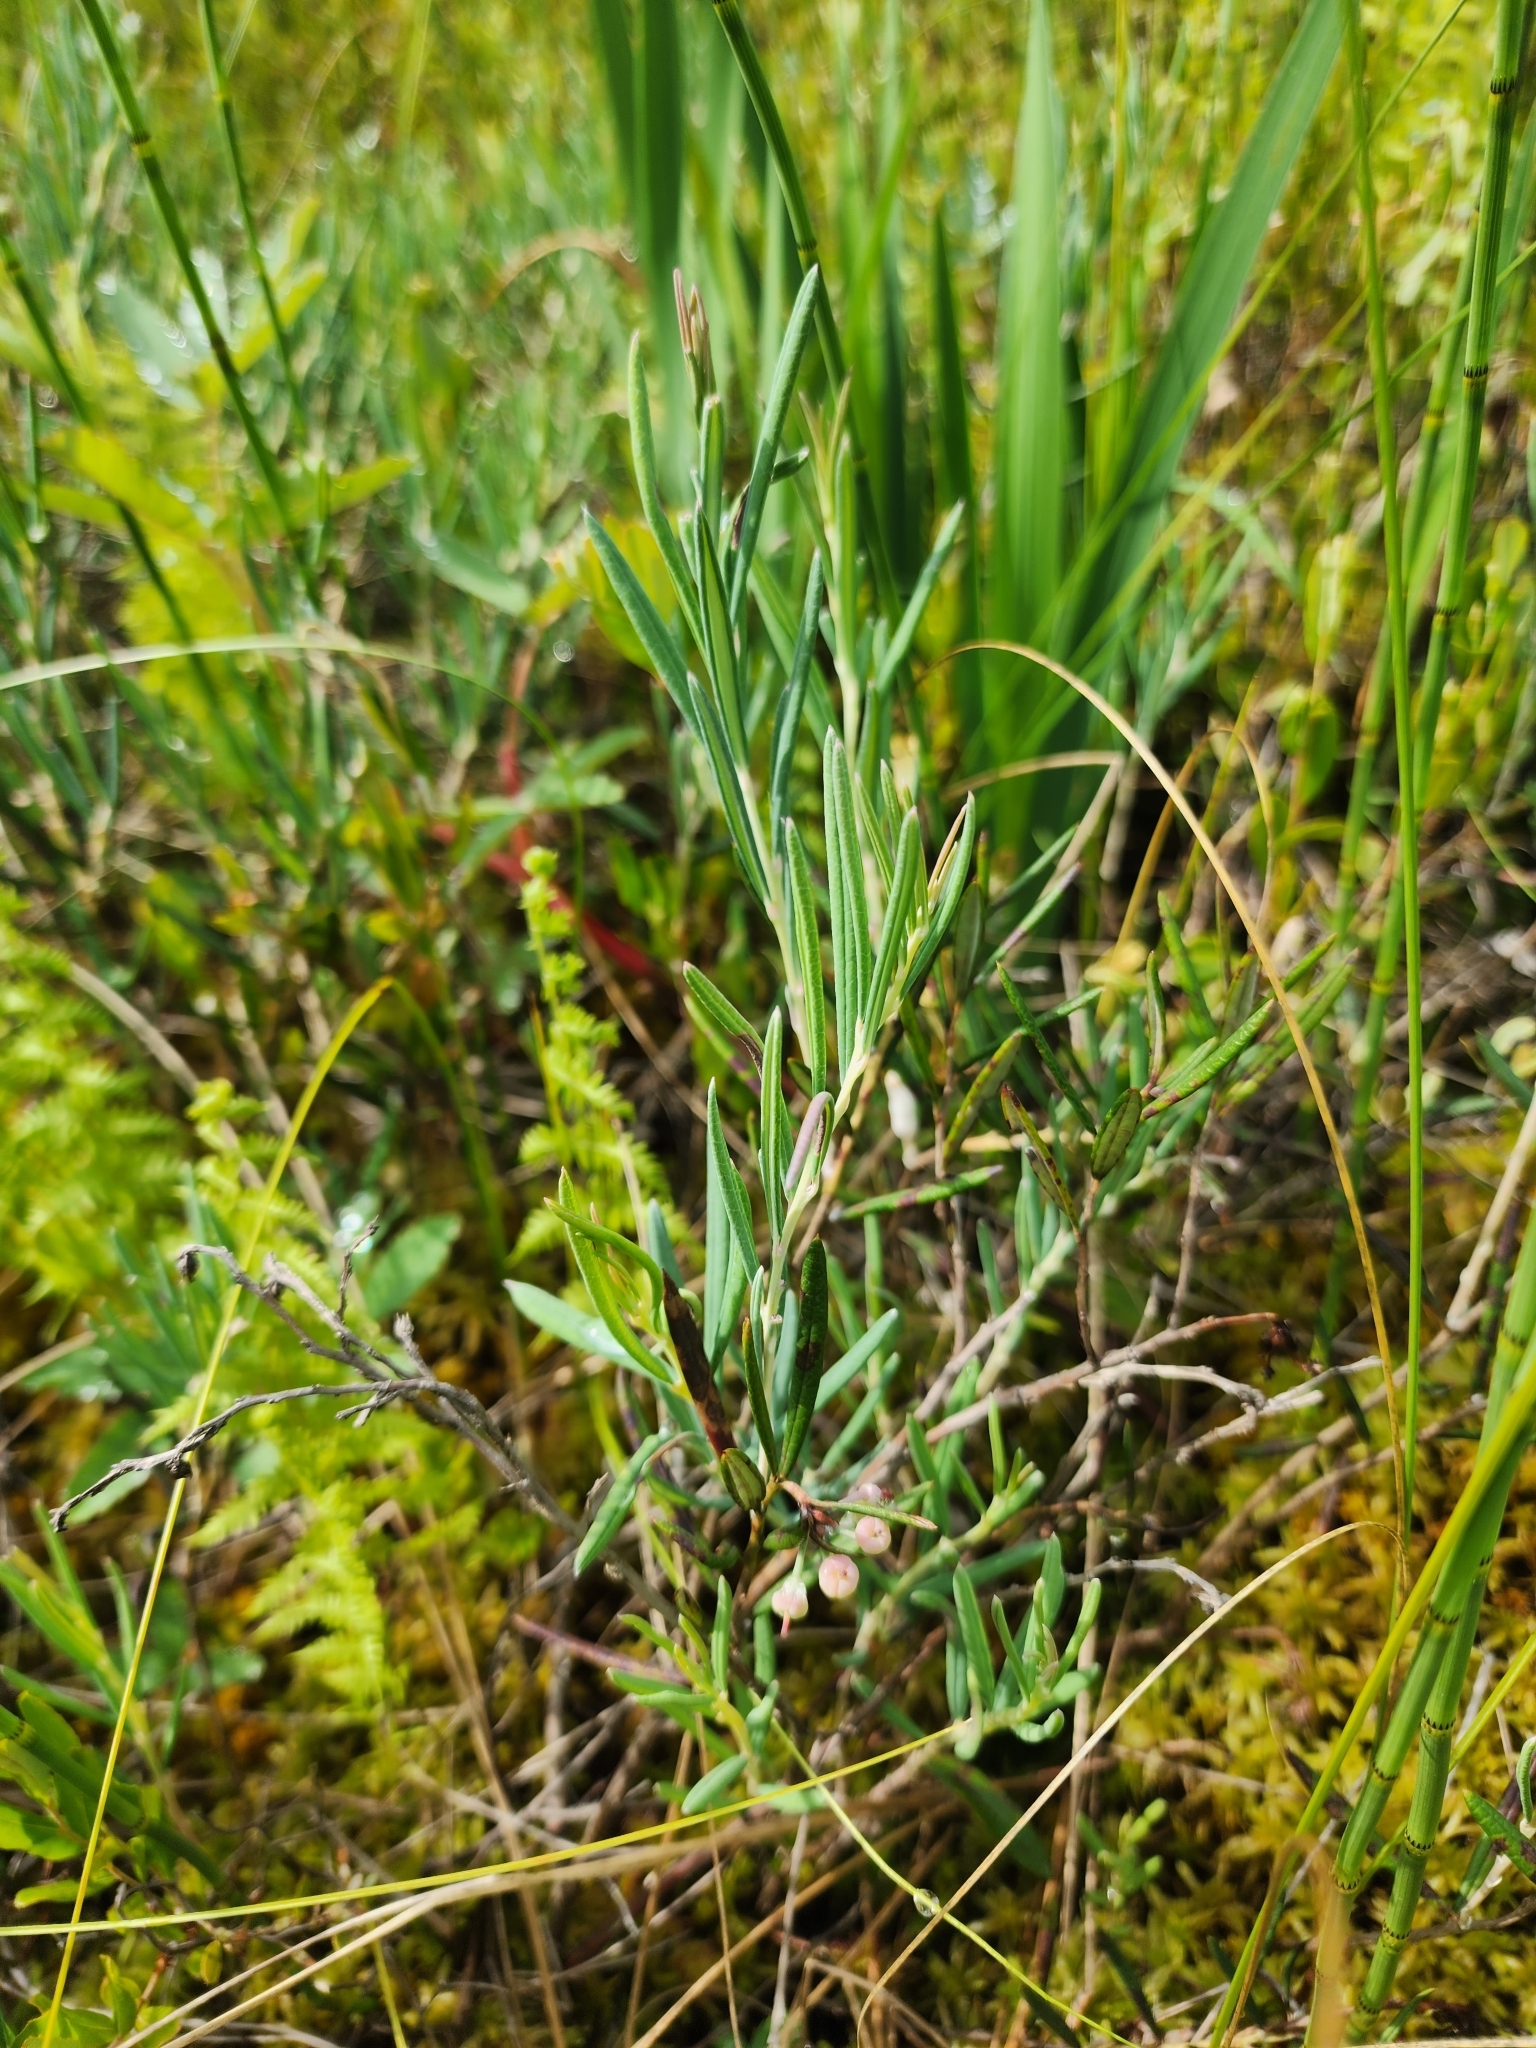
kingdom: Plantae
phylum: Tracheophyta
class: Magnoliopsida
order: Ericales
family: Ericaceae
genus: Andromeda
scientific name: Andromeda polifolia
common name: Bog-rosemary
